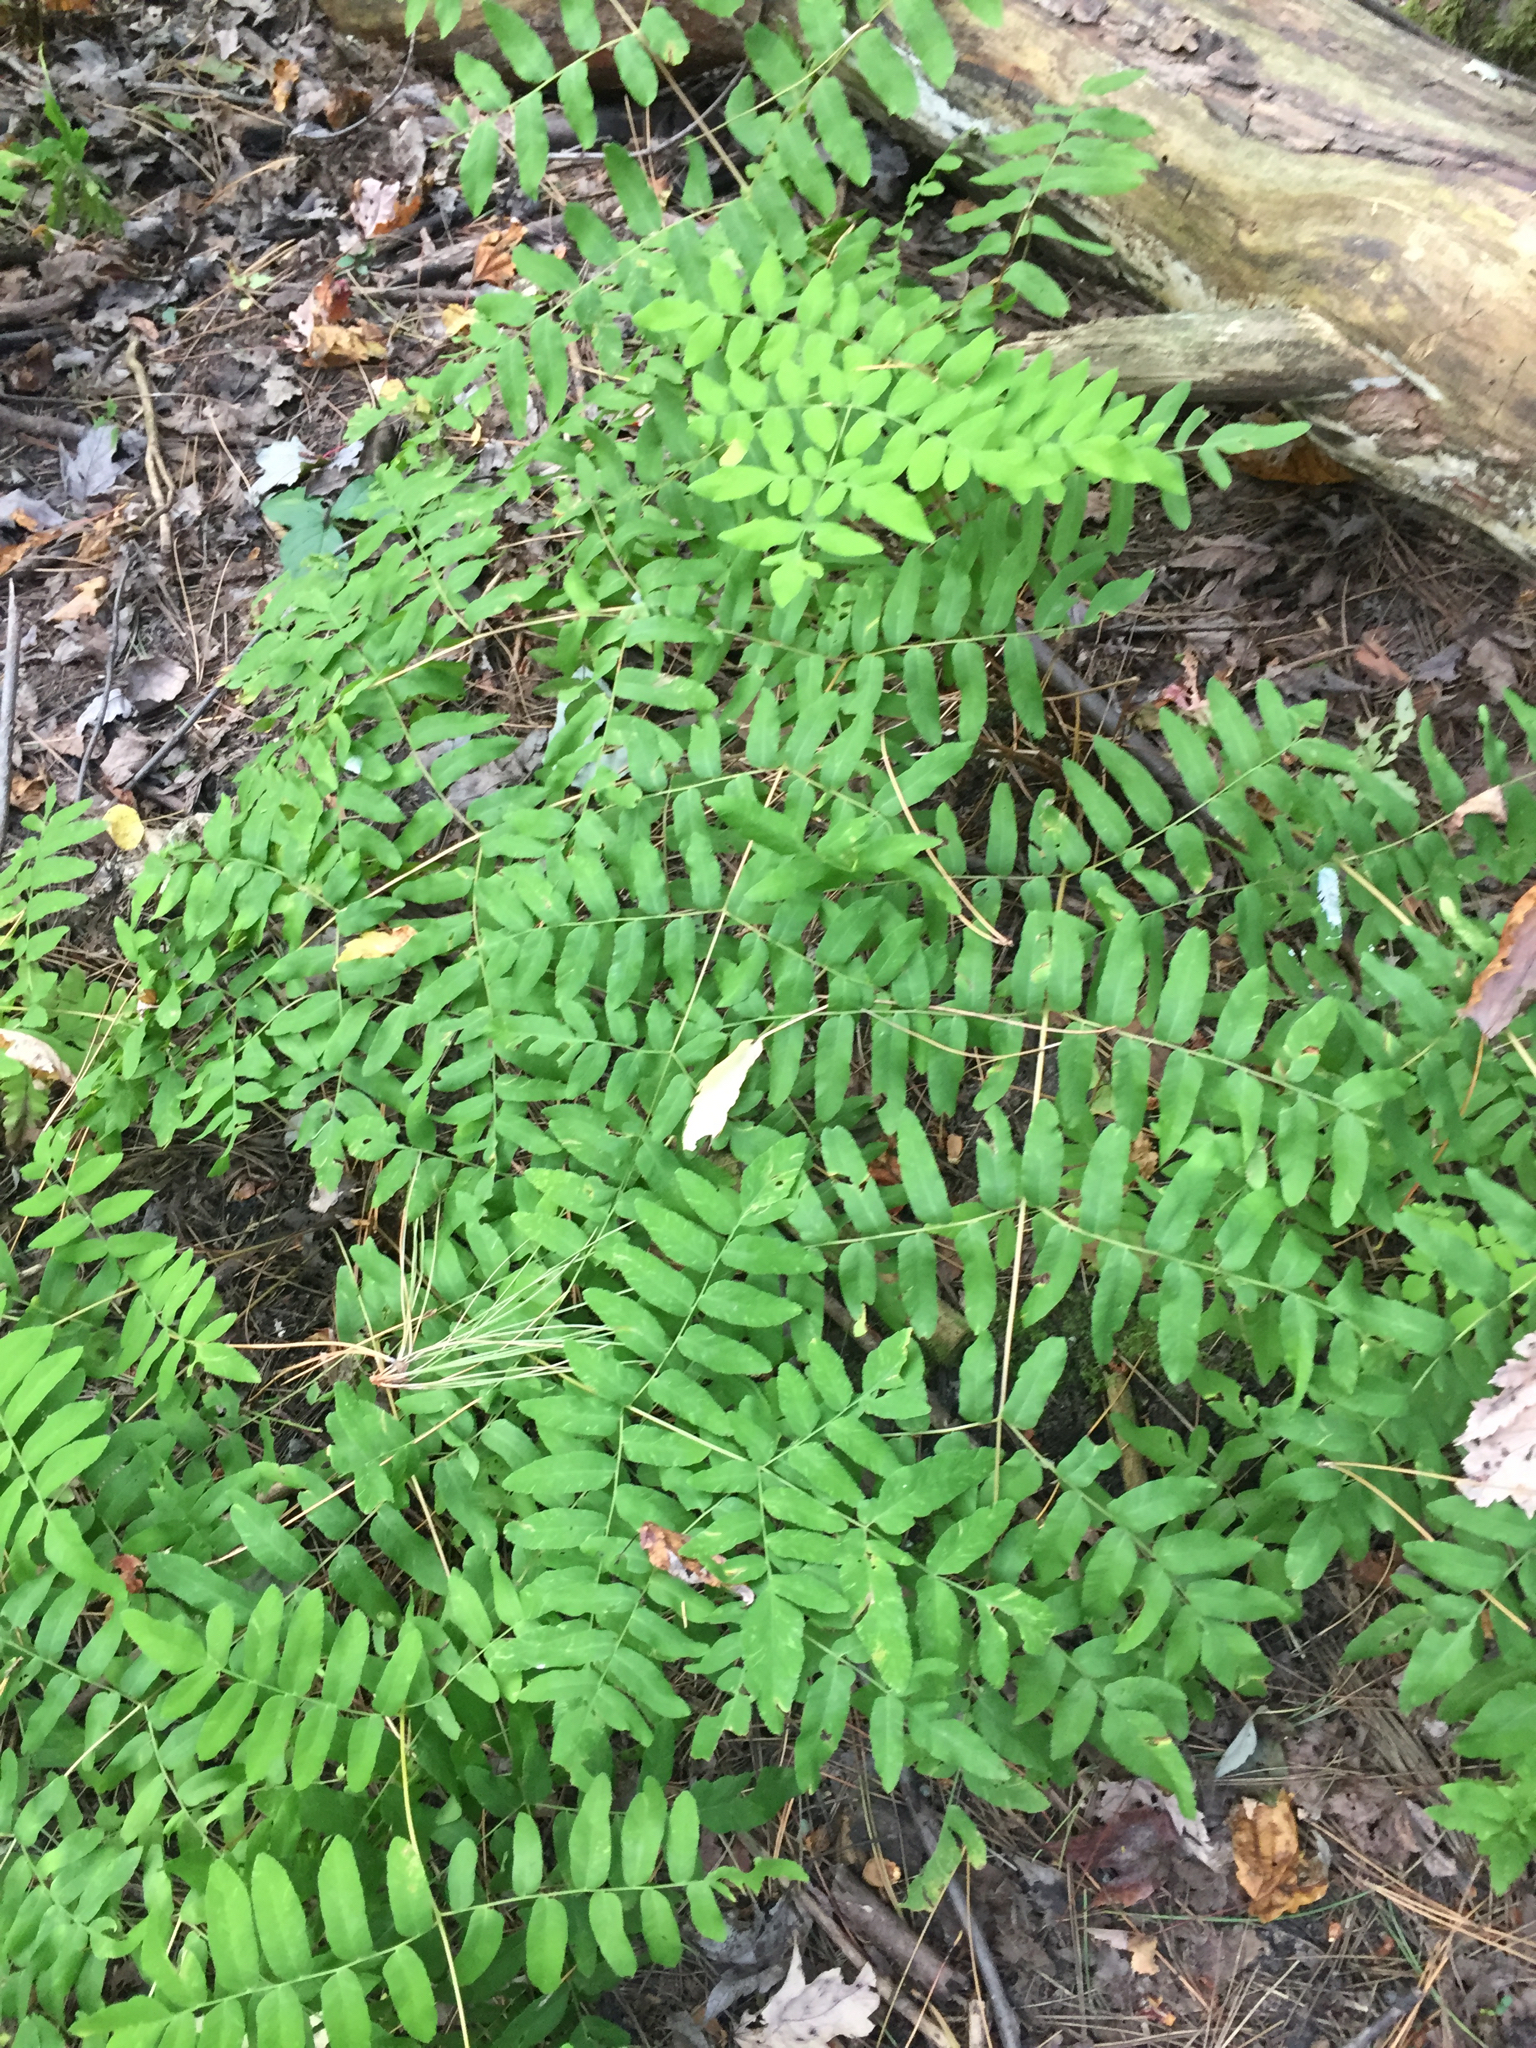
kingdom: Plantae
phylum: Tracheophyta
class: Polypodiopsida
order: Osmundales
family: Osmundaceae
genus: Osmunda
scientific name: Osmunda spectabilis
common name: American royal fern
